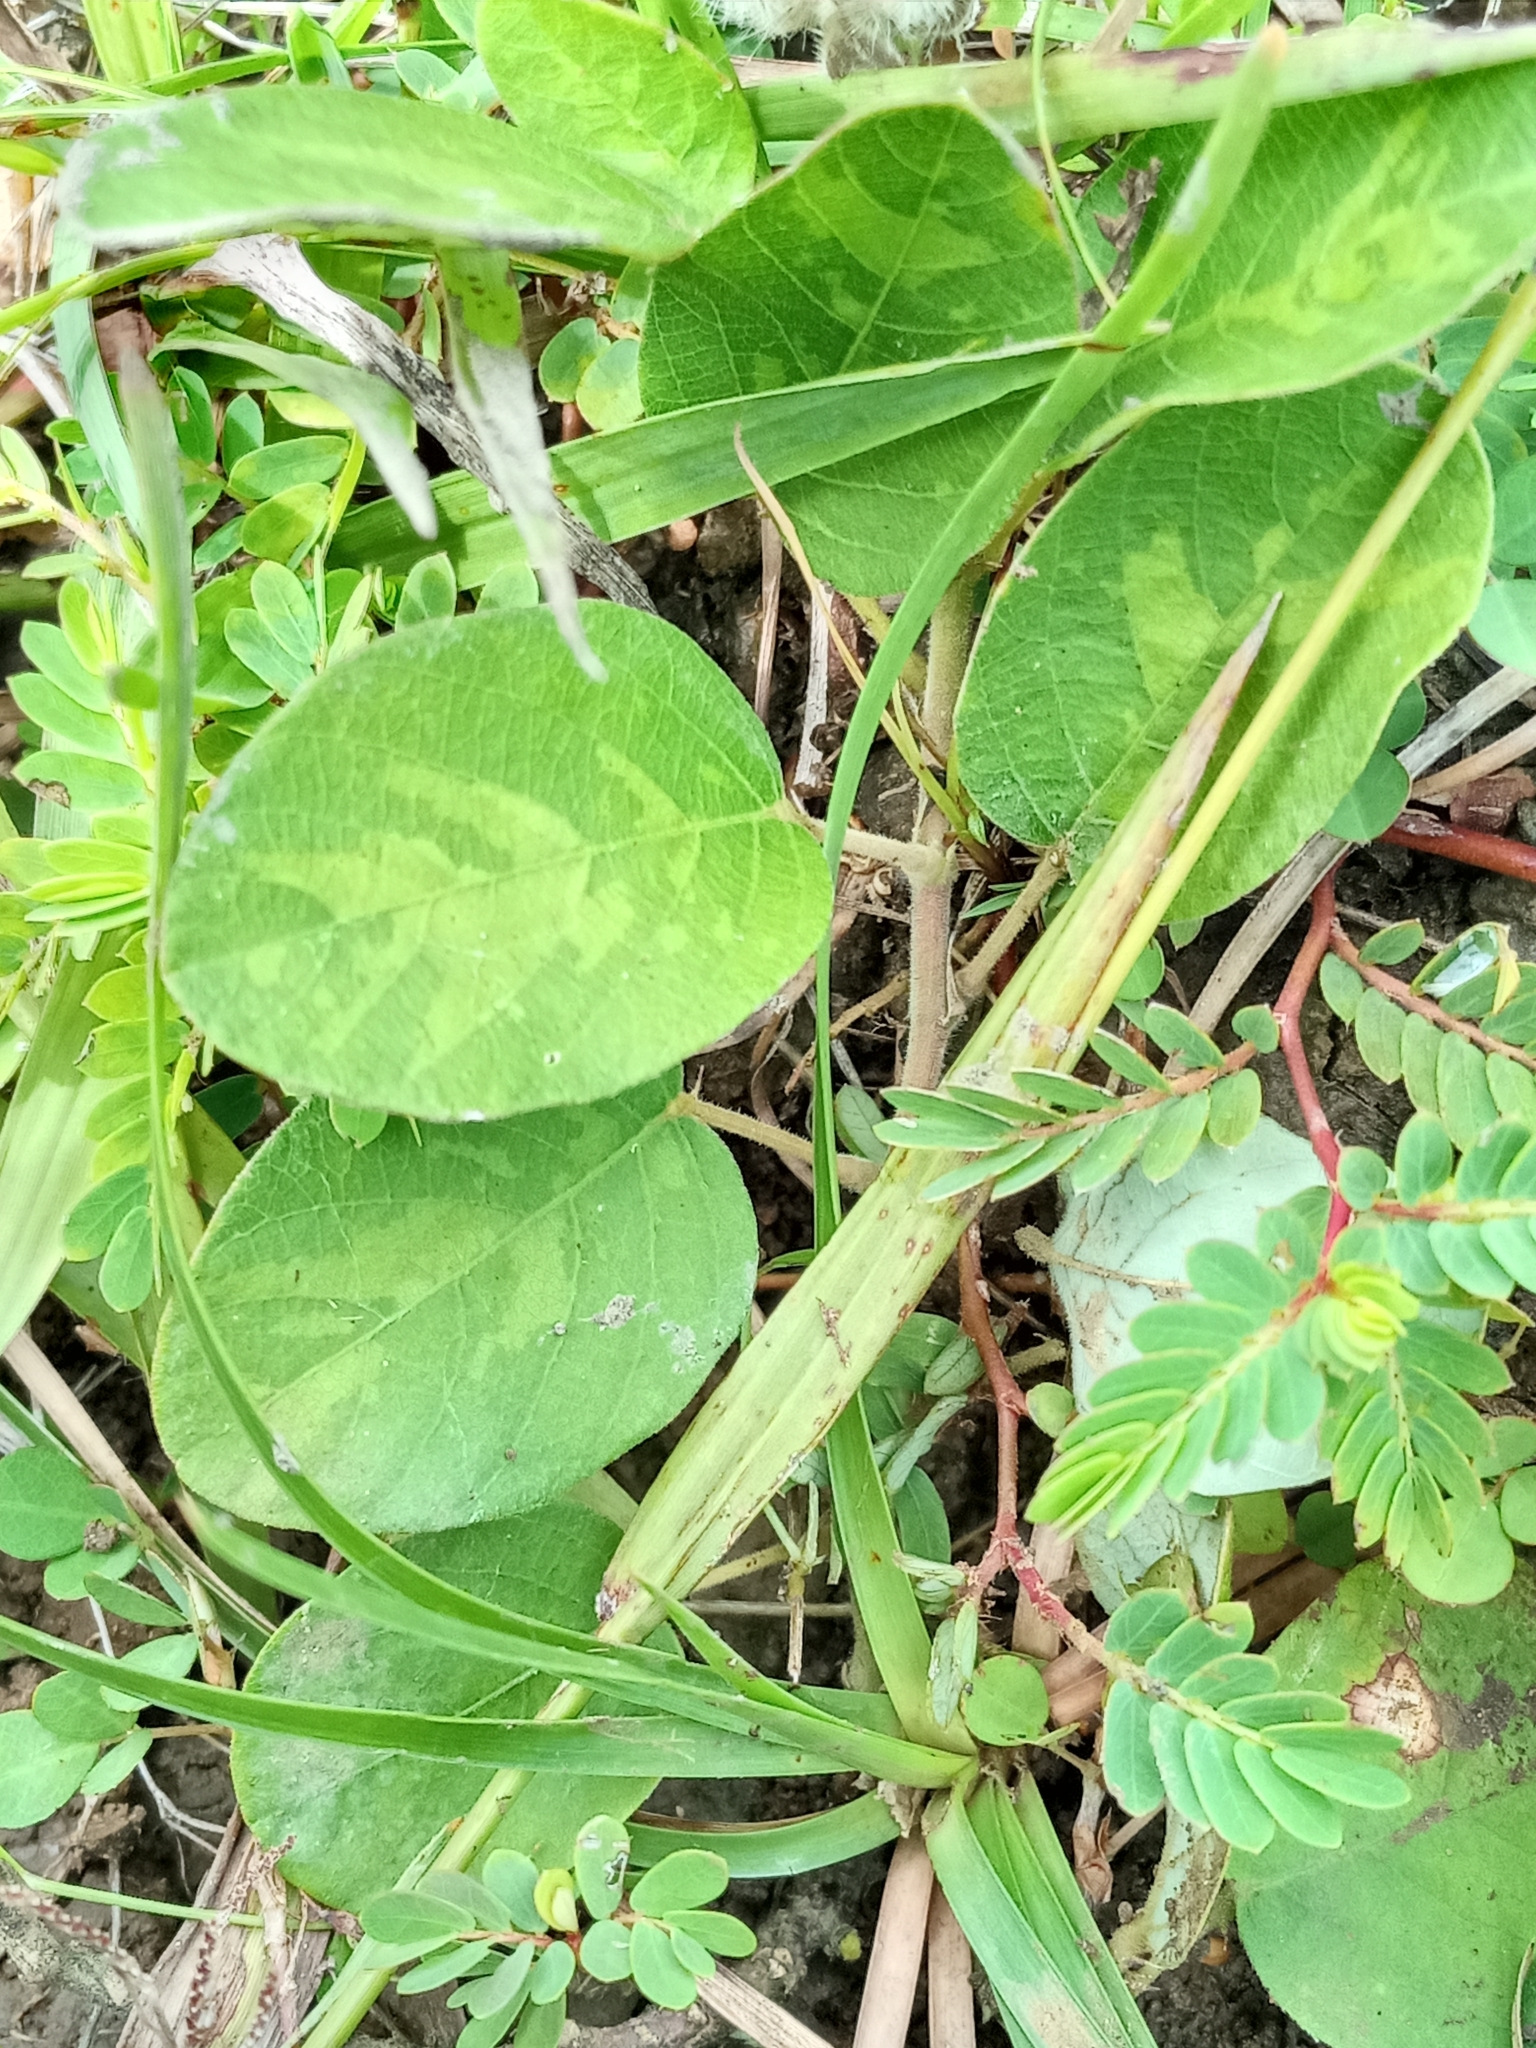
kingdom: Plantae
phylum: Tracheophyta
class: Magnoliopsida
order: Fabales
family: Fabaceae
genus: Uraria
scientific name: Uraria lagopodioides
